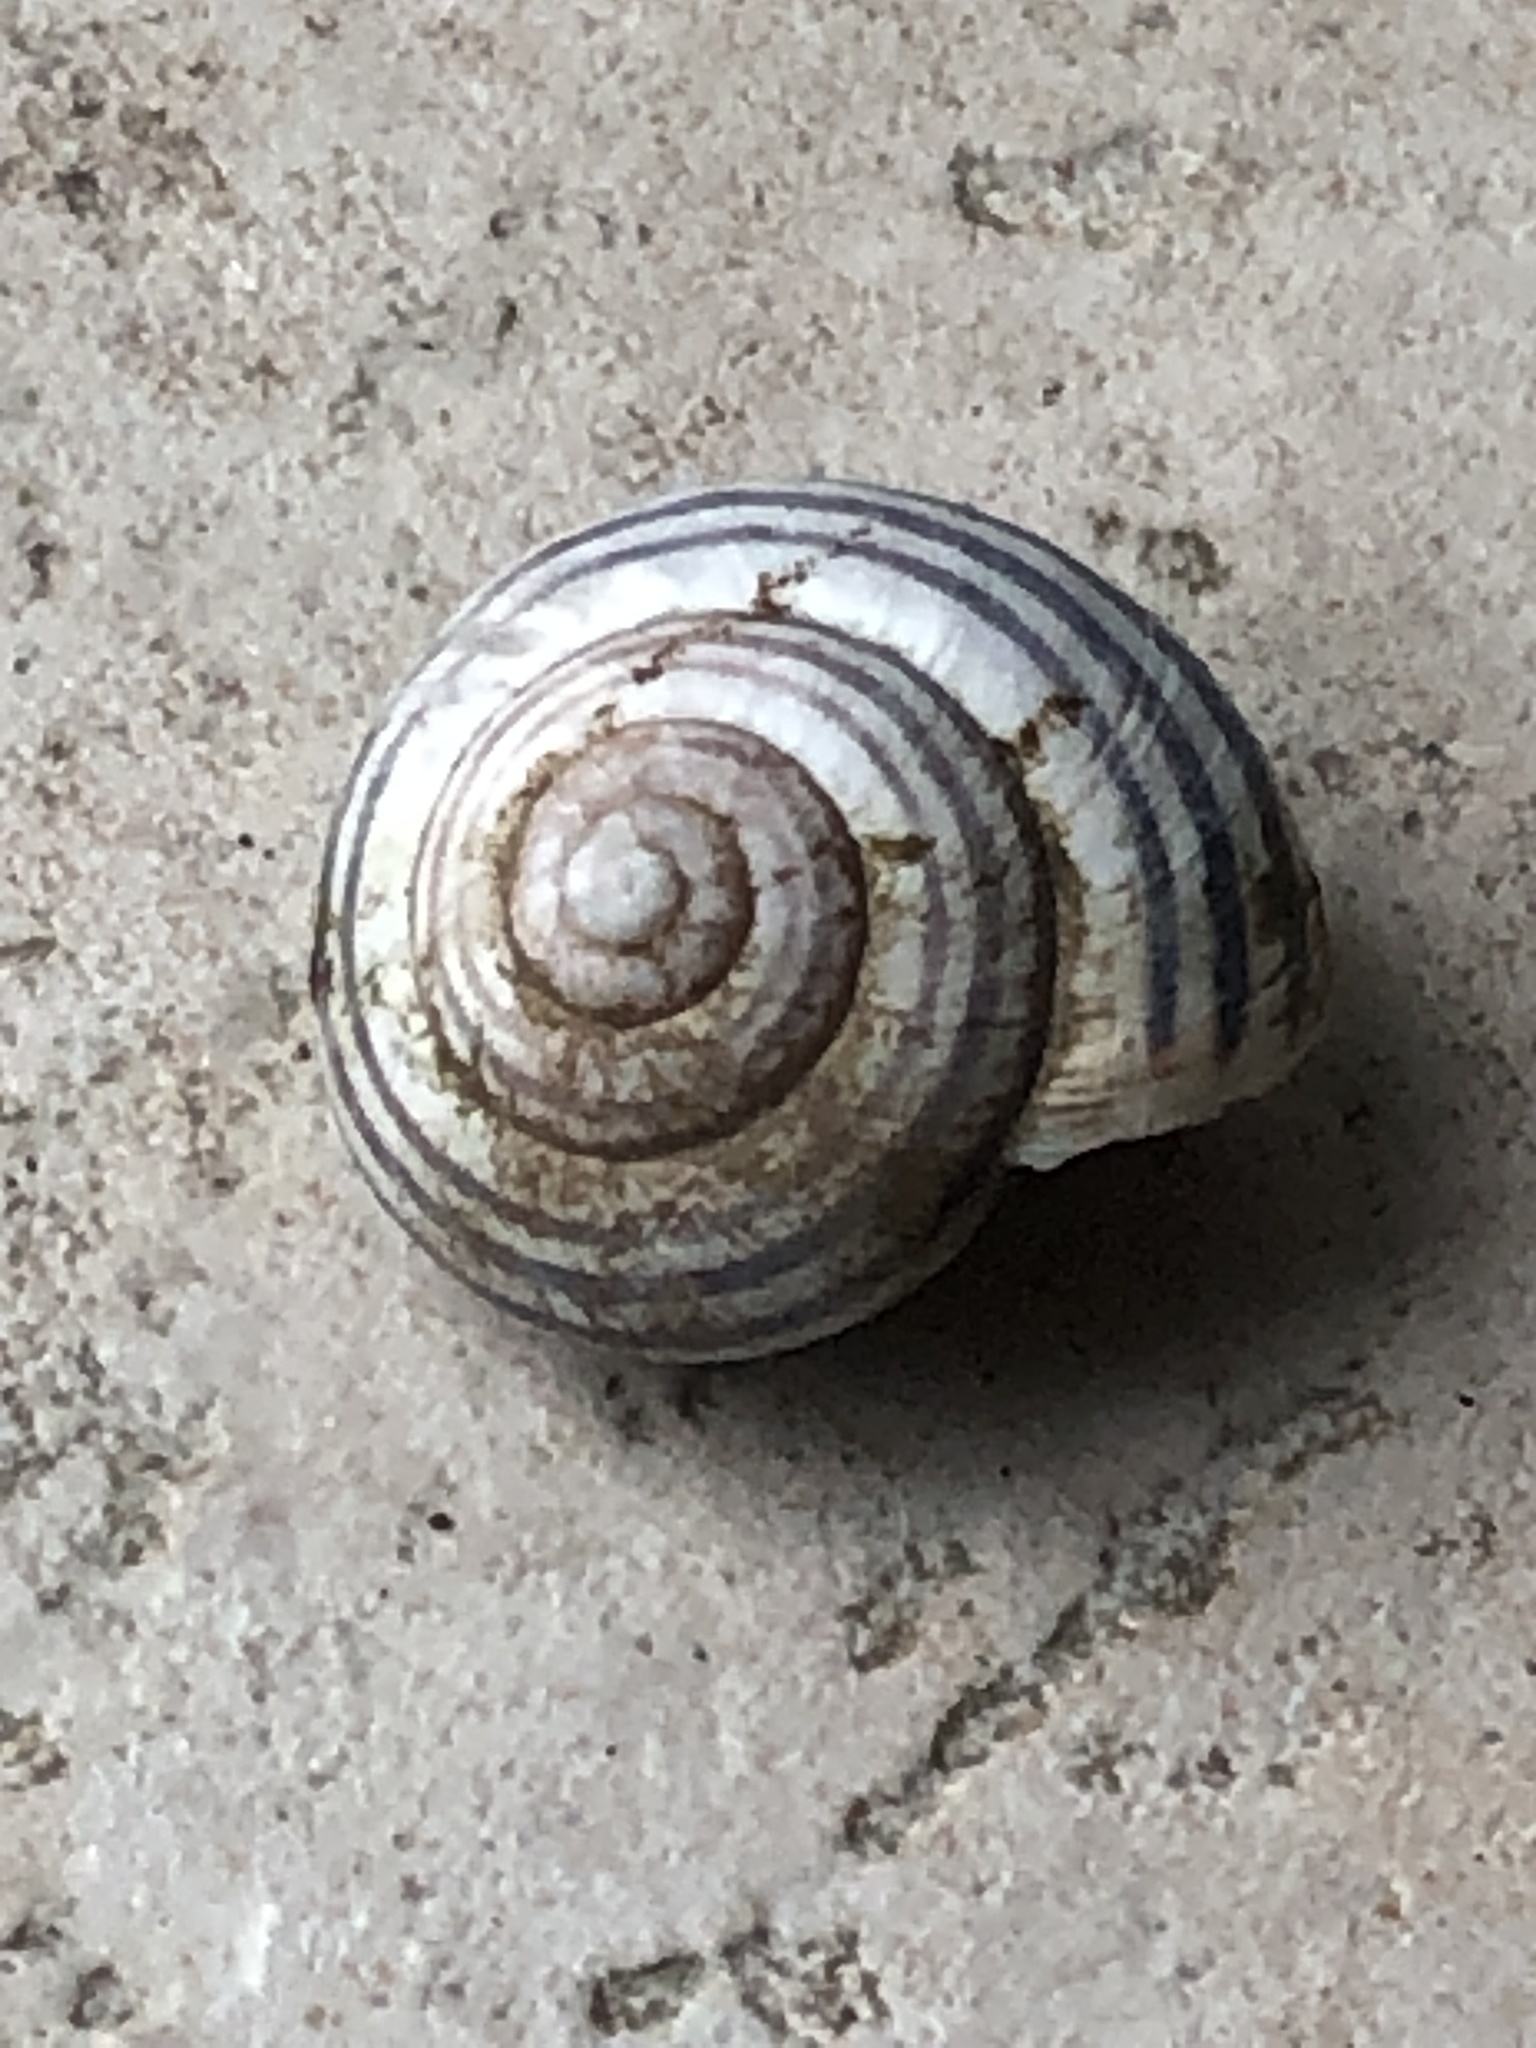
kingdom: Animalia
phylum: Mollusca
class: Gastropoda
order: Stylommatophora
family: Helicidae
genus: Cepaea
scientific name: Cepaea nemoralis
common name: Grovesnail
